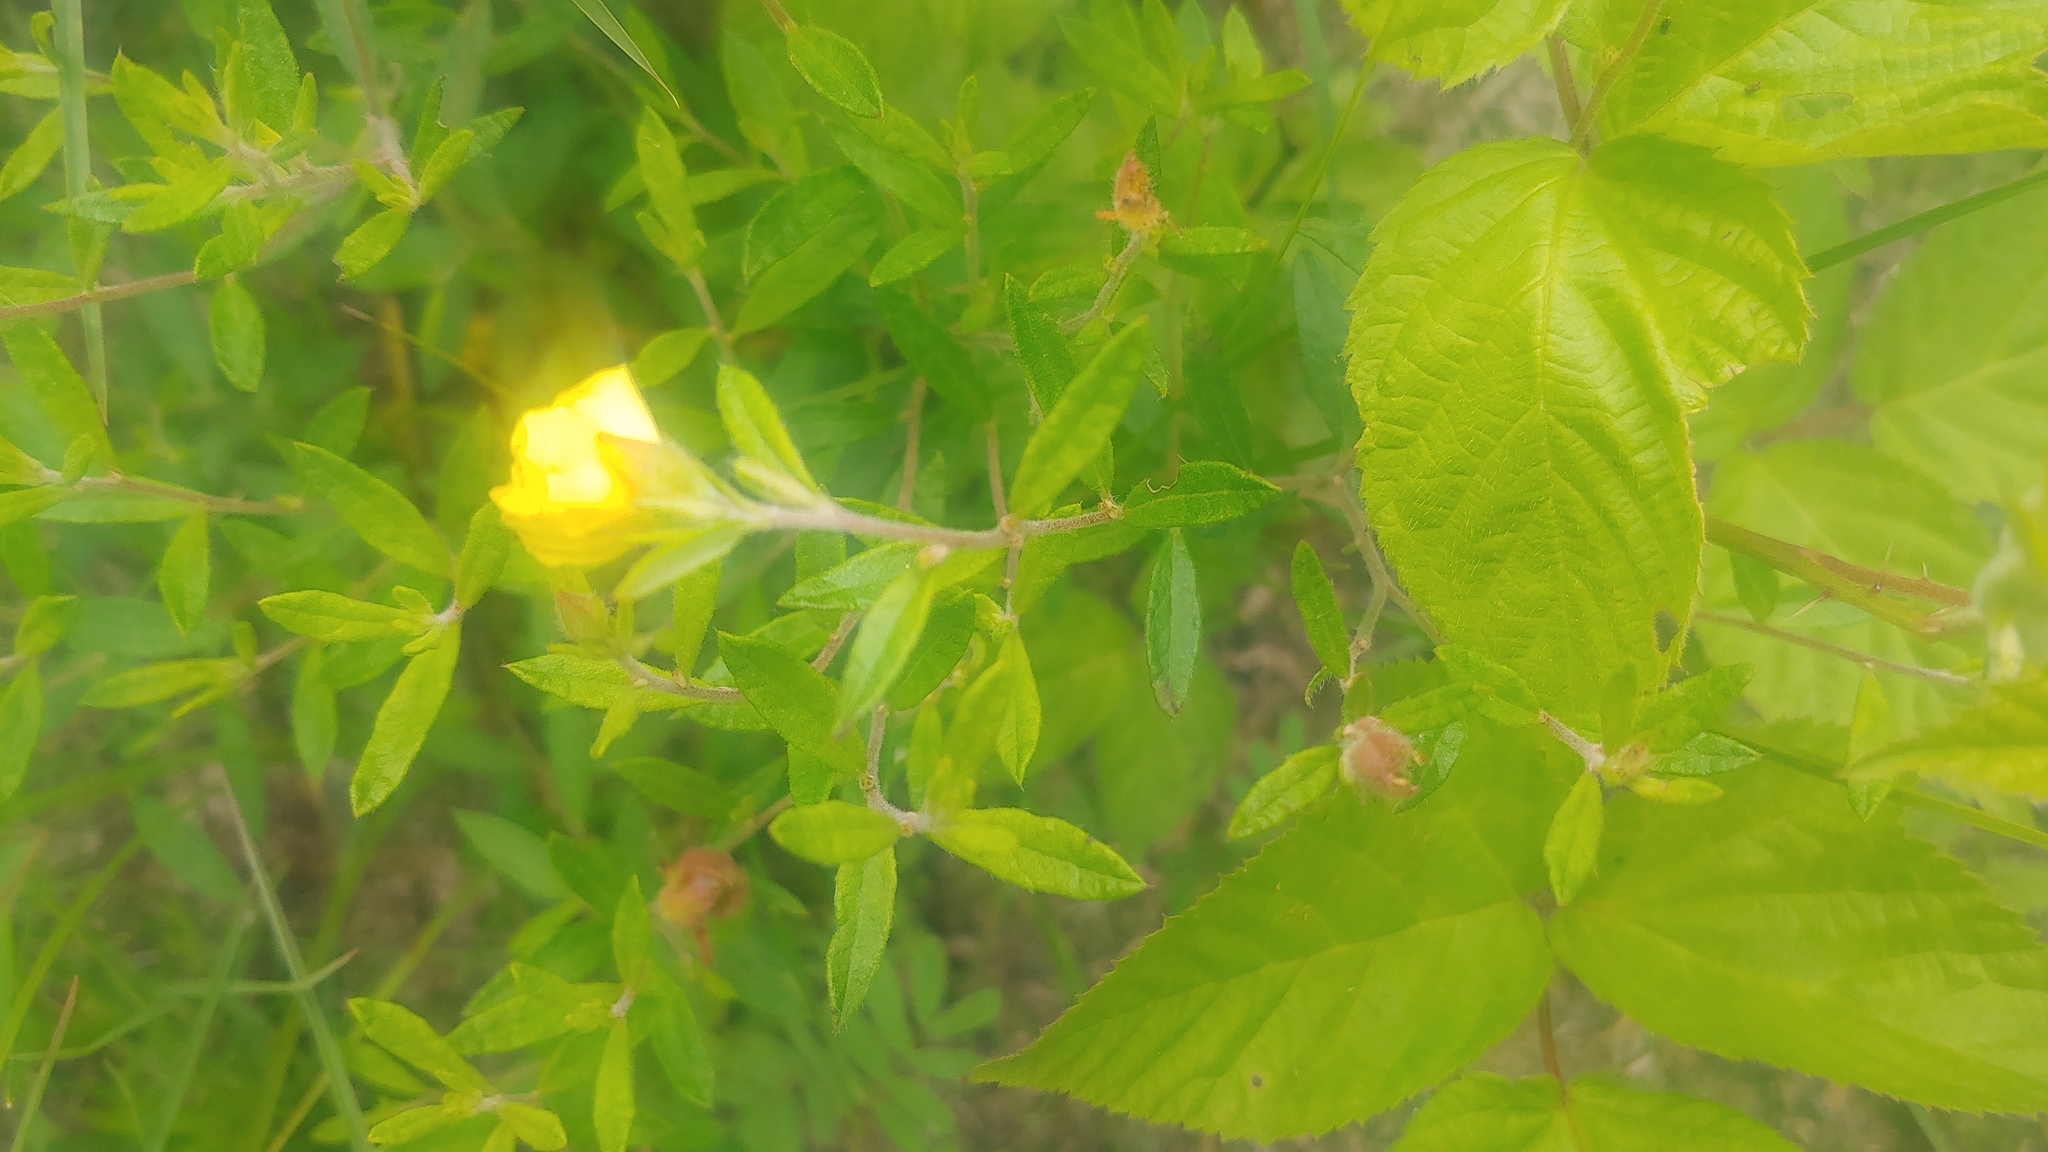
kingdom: Plantae
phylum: Tracheophyta
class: Magnoliopsida
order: Malvales
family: Cistaceae
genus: Crocanthemum
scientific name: Crocanthemum canadense
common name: Canada frostweed
